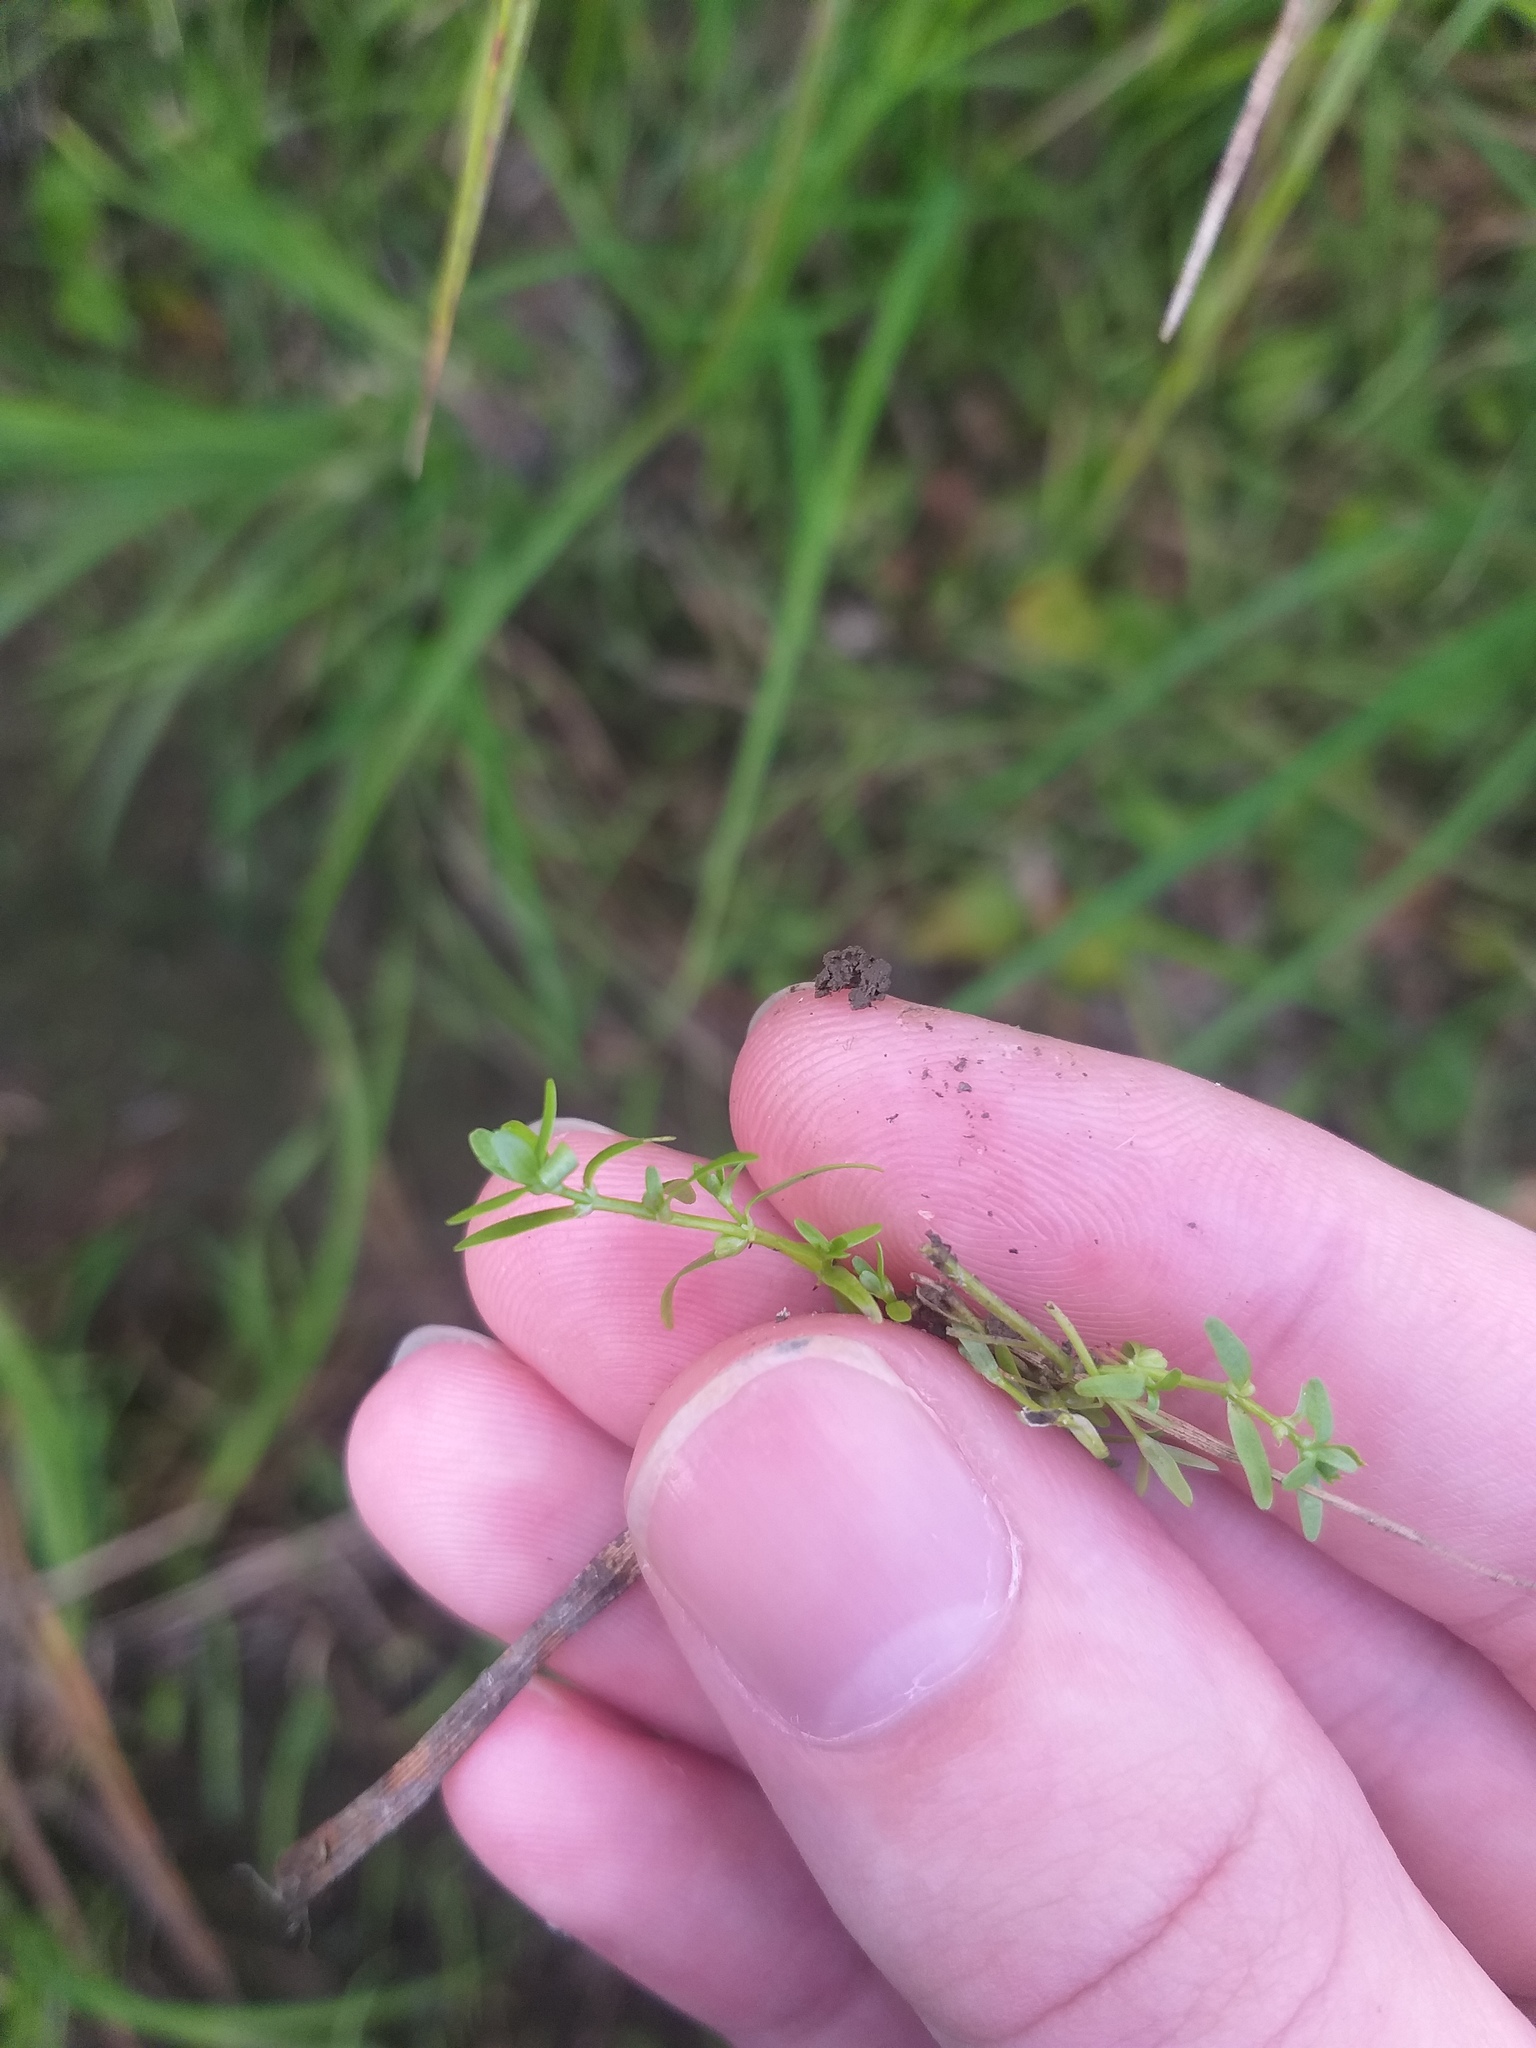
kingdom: Plantae
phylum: Tracheophyta
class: Magnoliopsida
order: Lamiales
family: Plantaginaceae
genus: Callitriche
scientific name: Callitriche palustris
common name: Spring water-starwort
